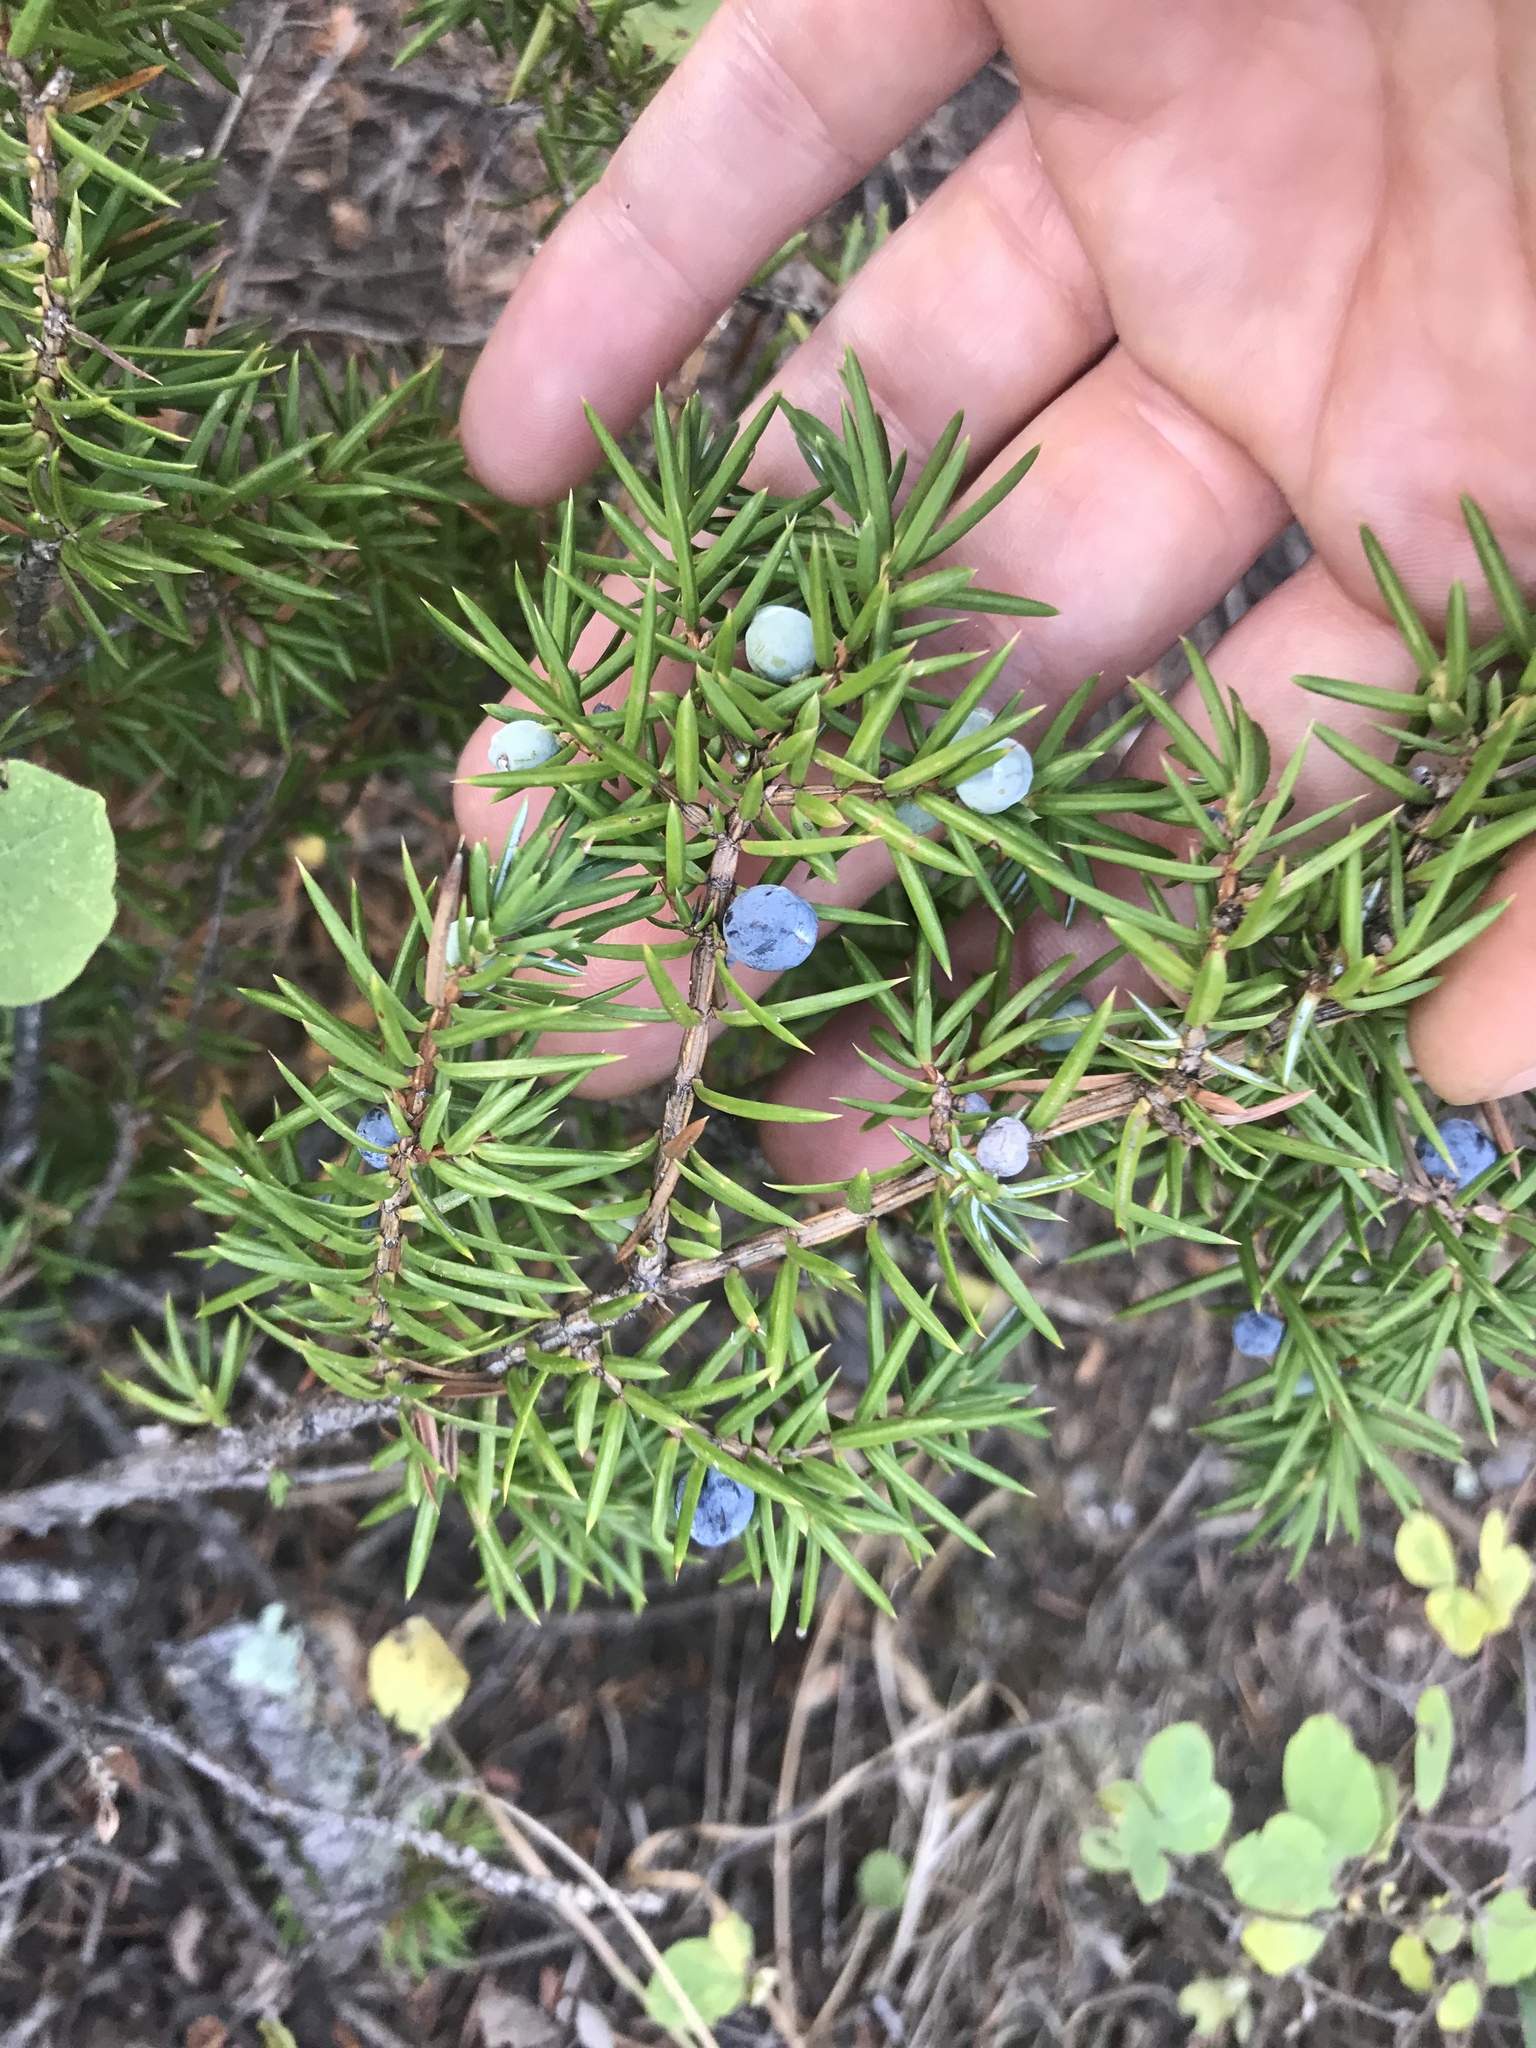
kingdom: Plantae
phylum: Tracheophyta
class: Pinopsida
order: Pinales
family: Cupressaceae
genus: Juniperus
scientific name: Juniperus communis
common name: Common juniper
